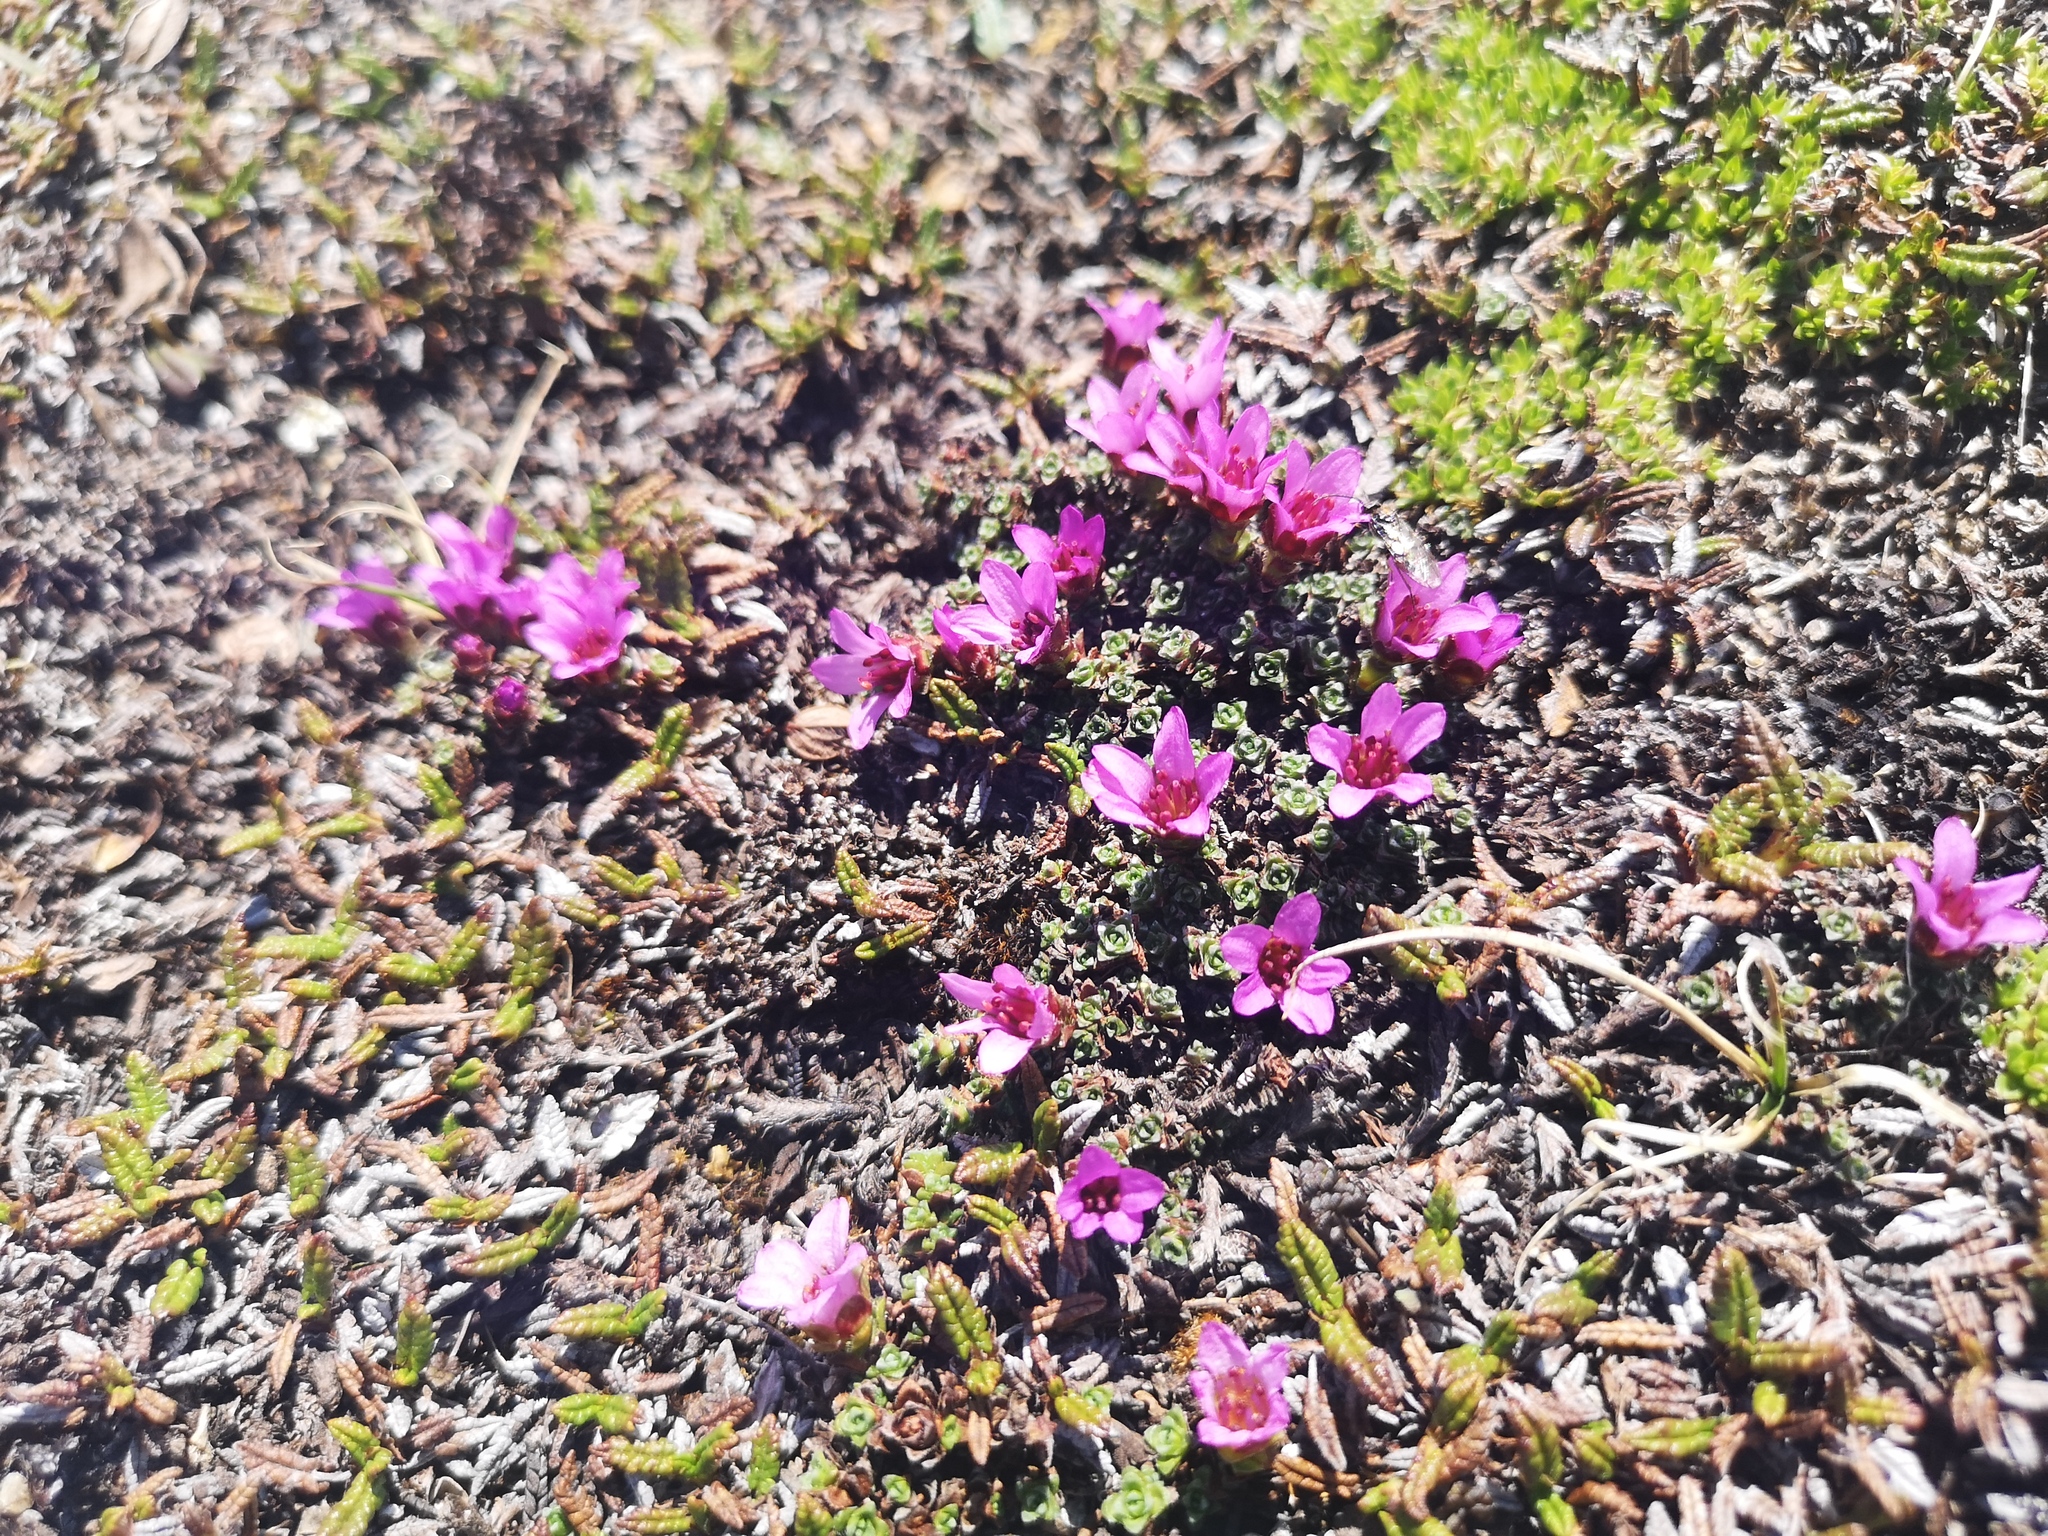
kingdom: Plantae
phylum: Tracheophyta
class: Magnoliopsida
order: Saxifragales
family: Saxifragaceae
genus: Saxifraga
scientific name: Saxifraga oppositifolia
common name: Purple saxifrage
